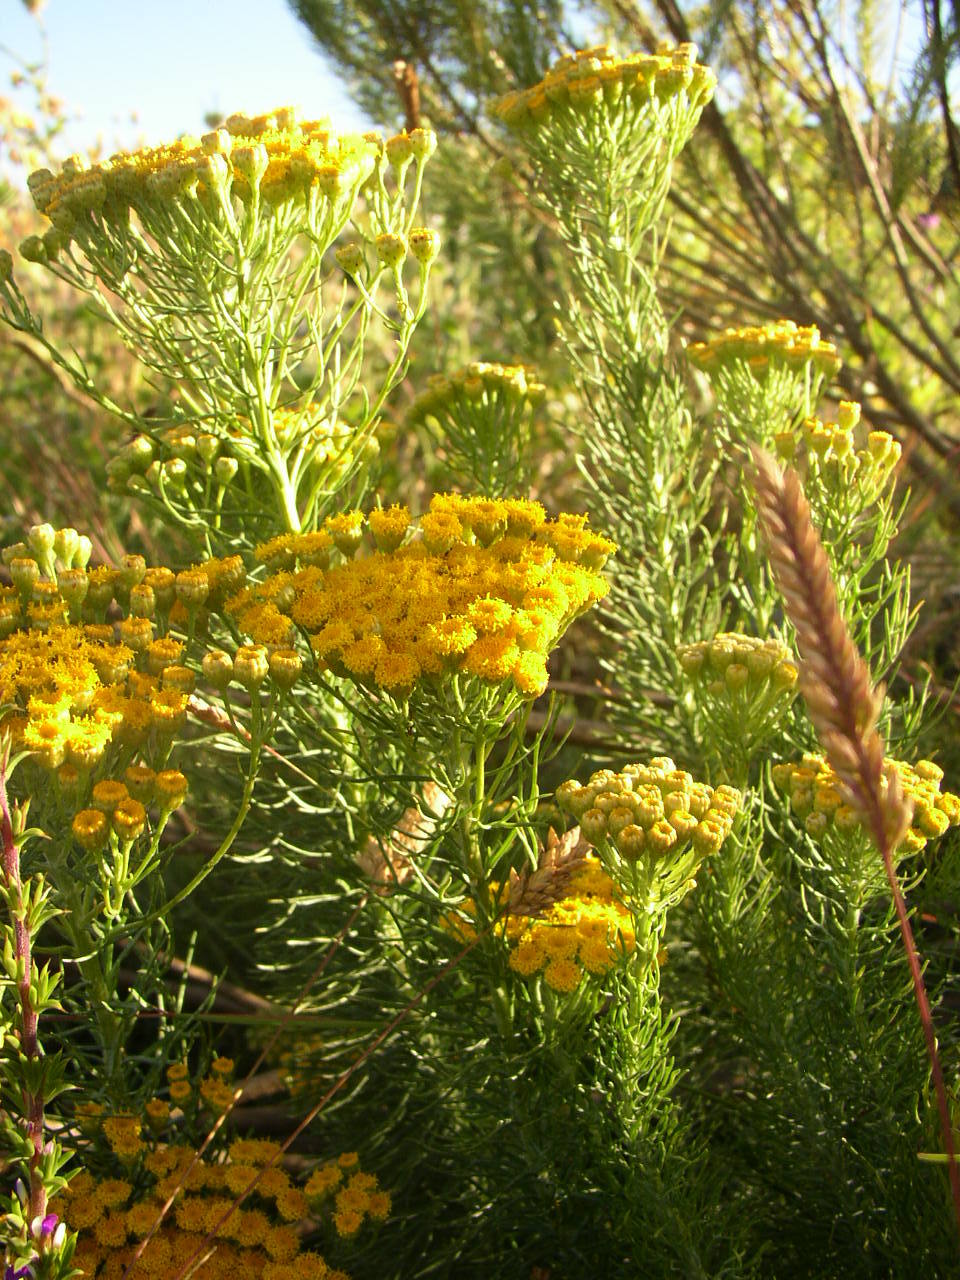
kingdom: Plantae
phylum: Tracheophyta
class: Magnoliopsida
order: Asterales
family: Asteraceae
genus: Athanasia
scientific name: Athanasia crithmifolia
